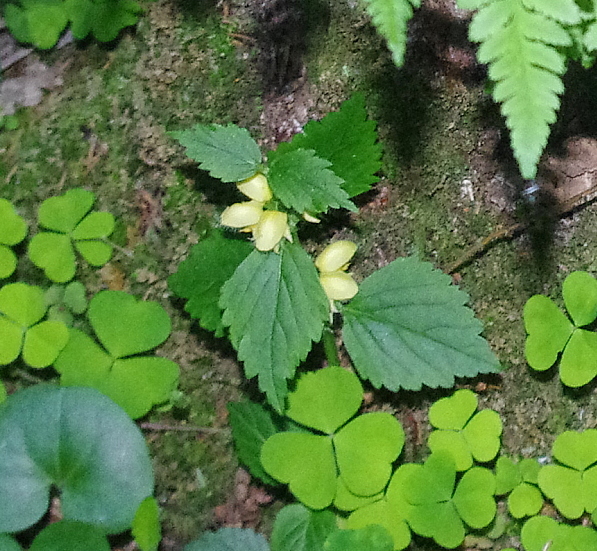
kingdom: Plantae
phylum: Tracheophyta
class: Magnoliopsida
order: Lamiales
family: Lamiaceae
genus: Lamium
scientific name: Lamium galeobdolon
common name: Yellow archangel
